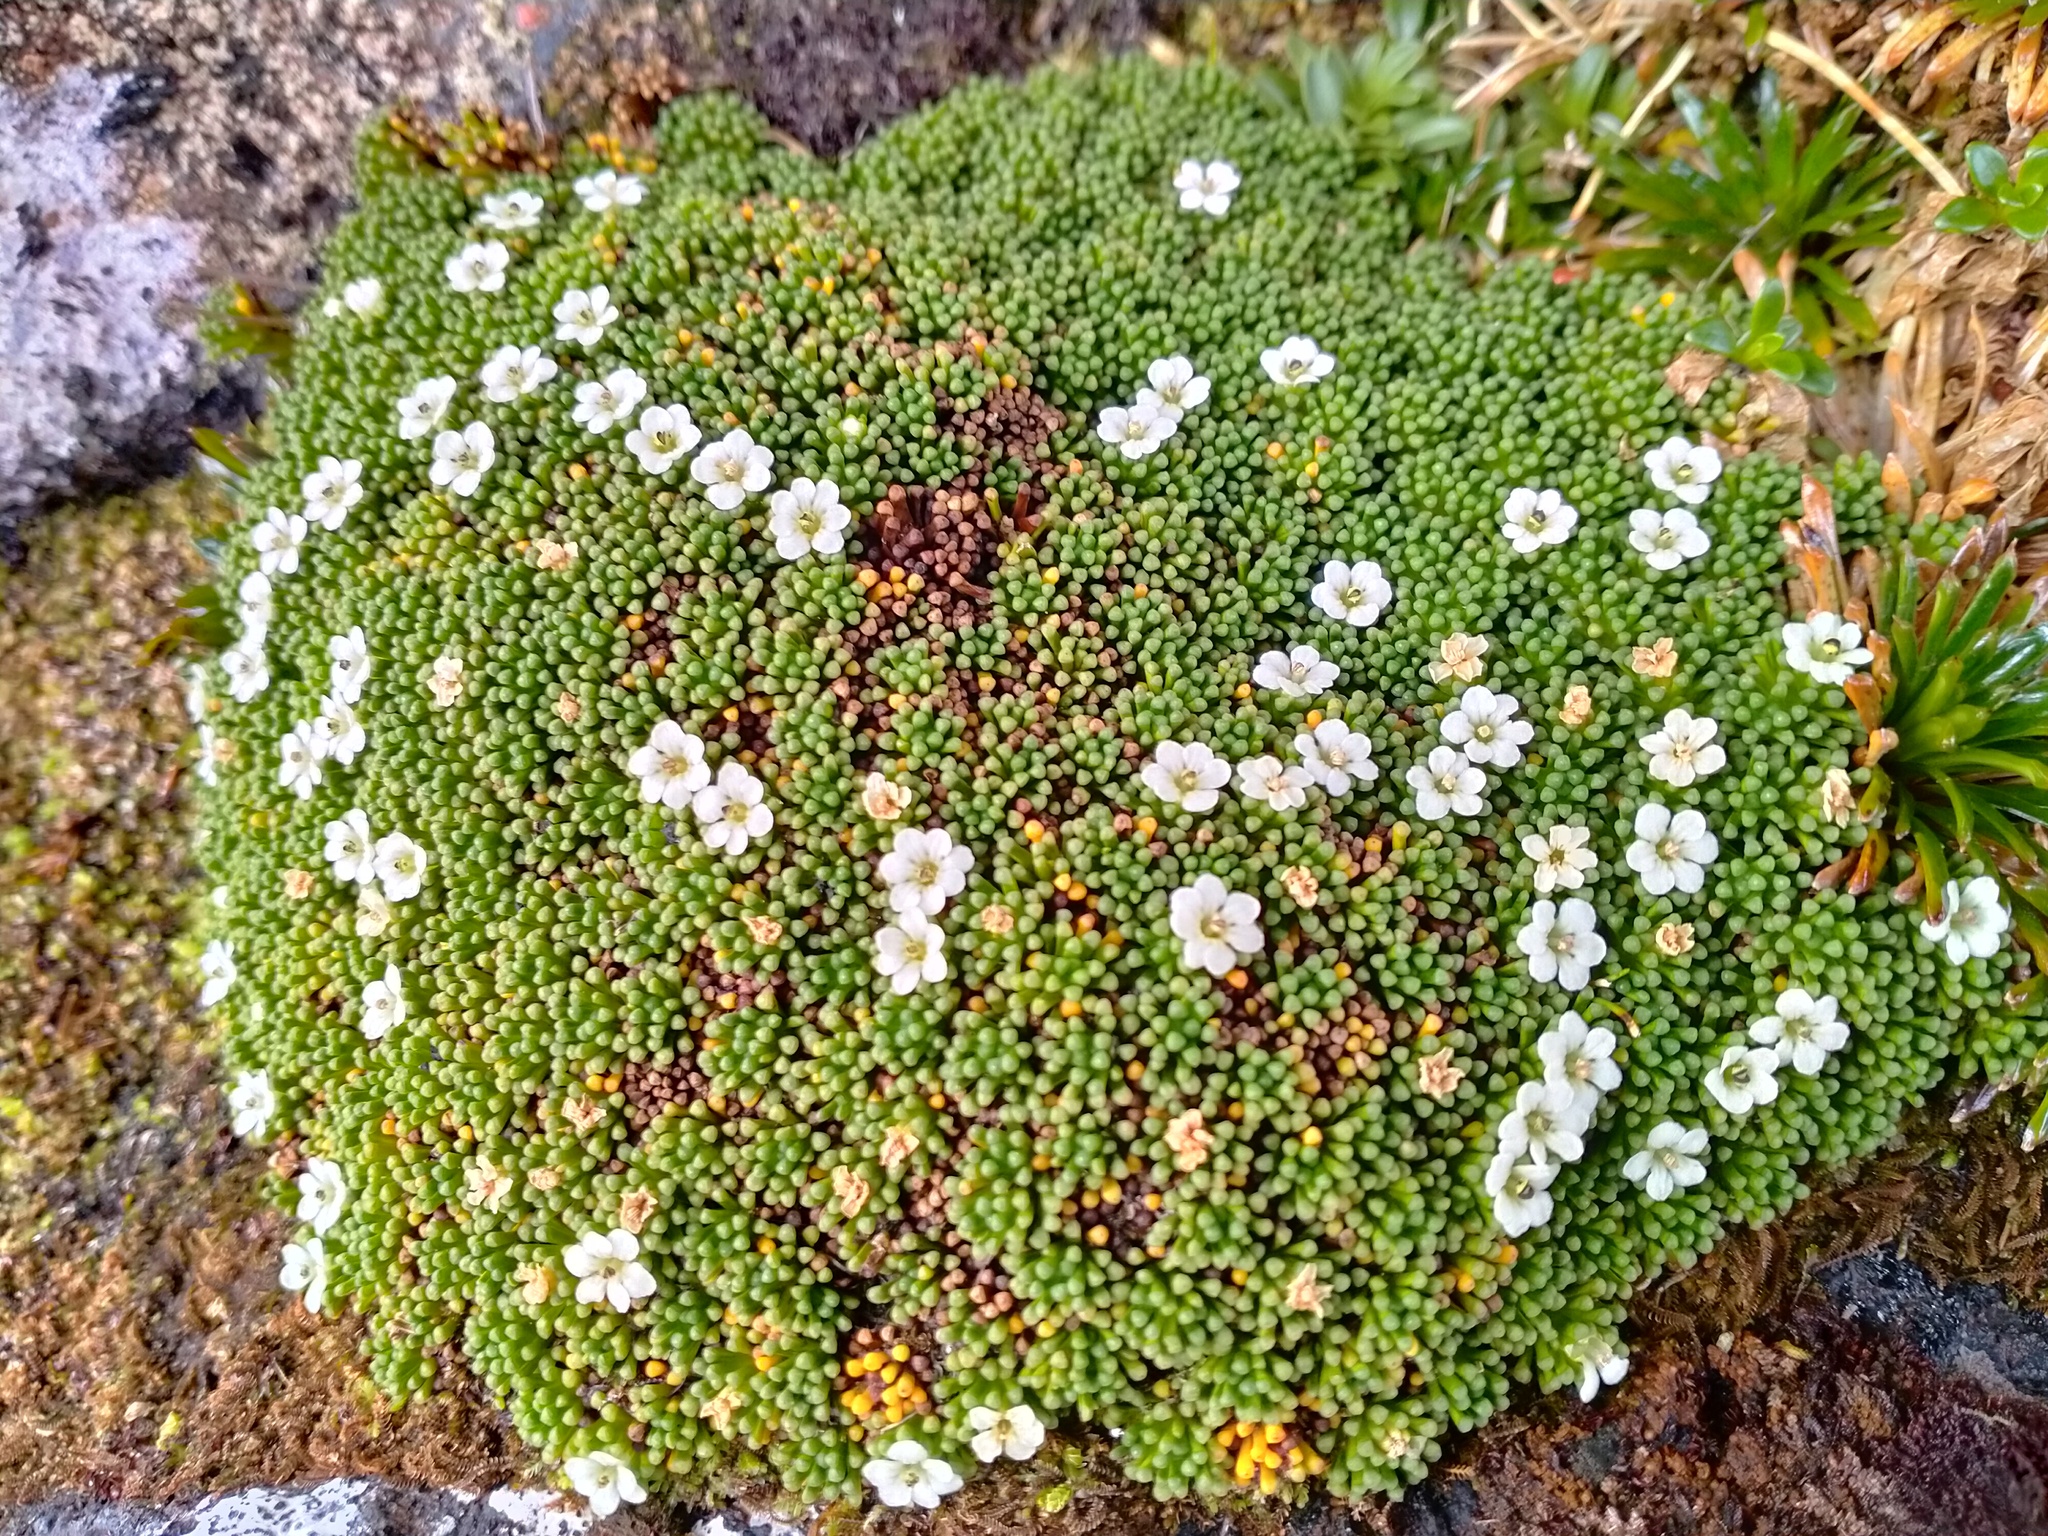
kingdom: Plantae
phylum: Tracheophyta
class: Magnoliopsida
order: Asterales
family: Stylidiaceae
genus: Phyllachne
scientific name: Phyllachne colensoi
